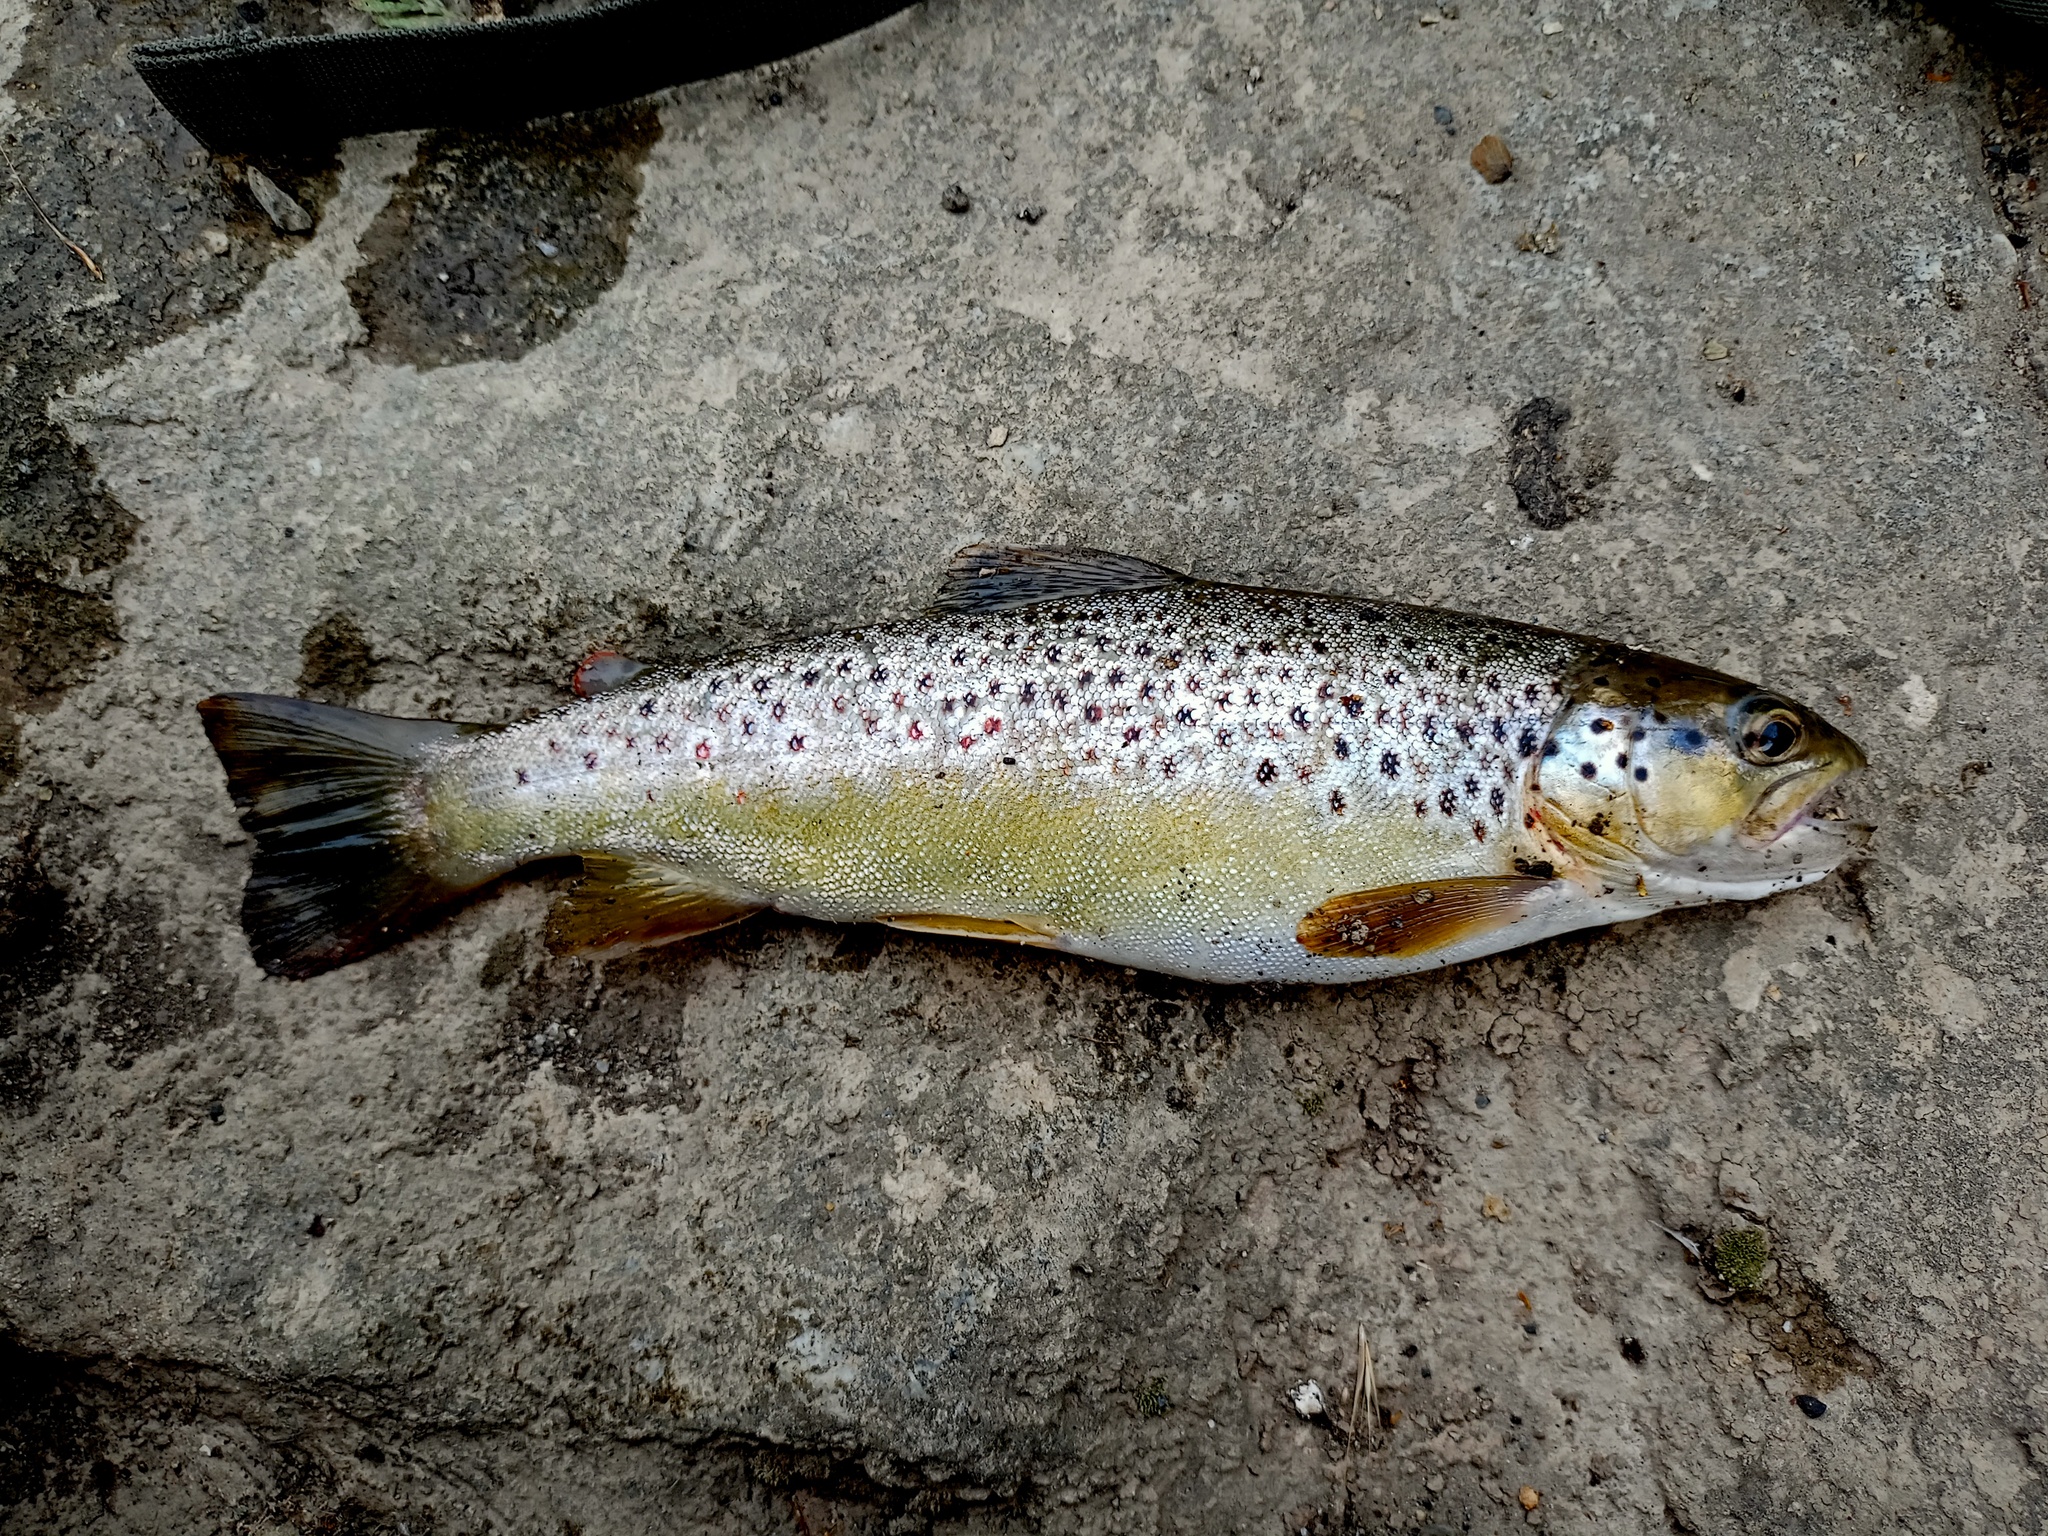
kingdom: Animalia
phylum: Chordata
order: Salmoniformes
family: Salmonidae
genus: Salmo
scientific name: Salmo trutta
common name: Brown trout
